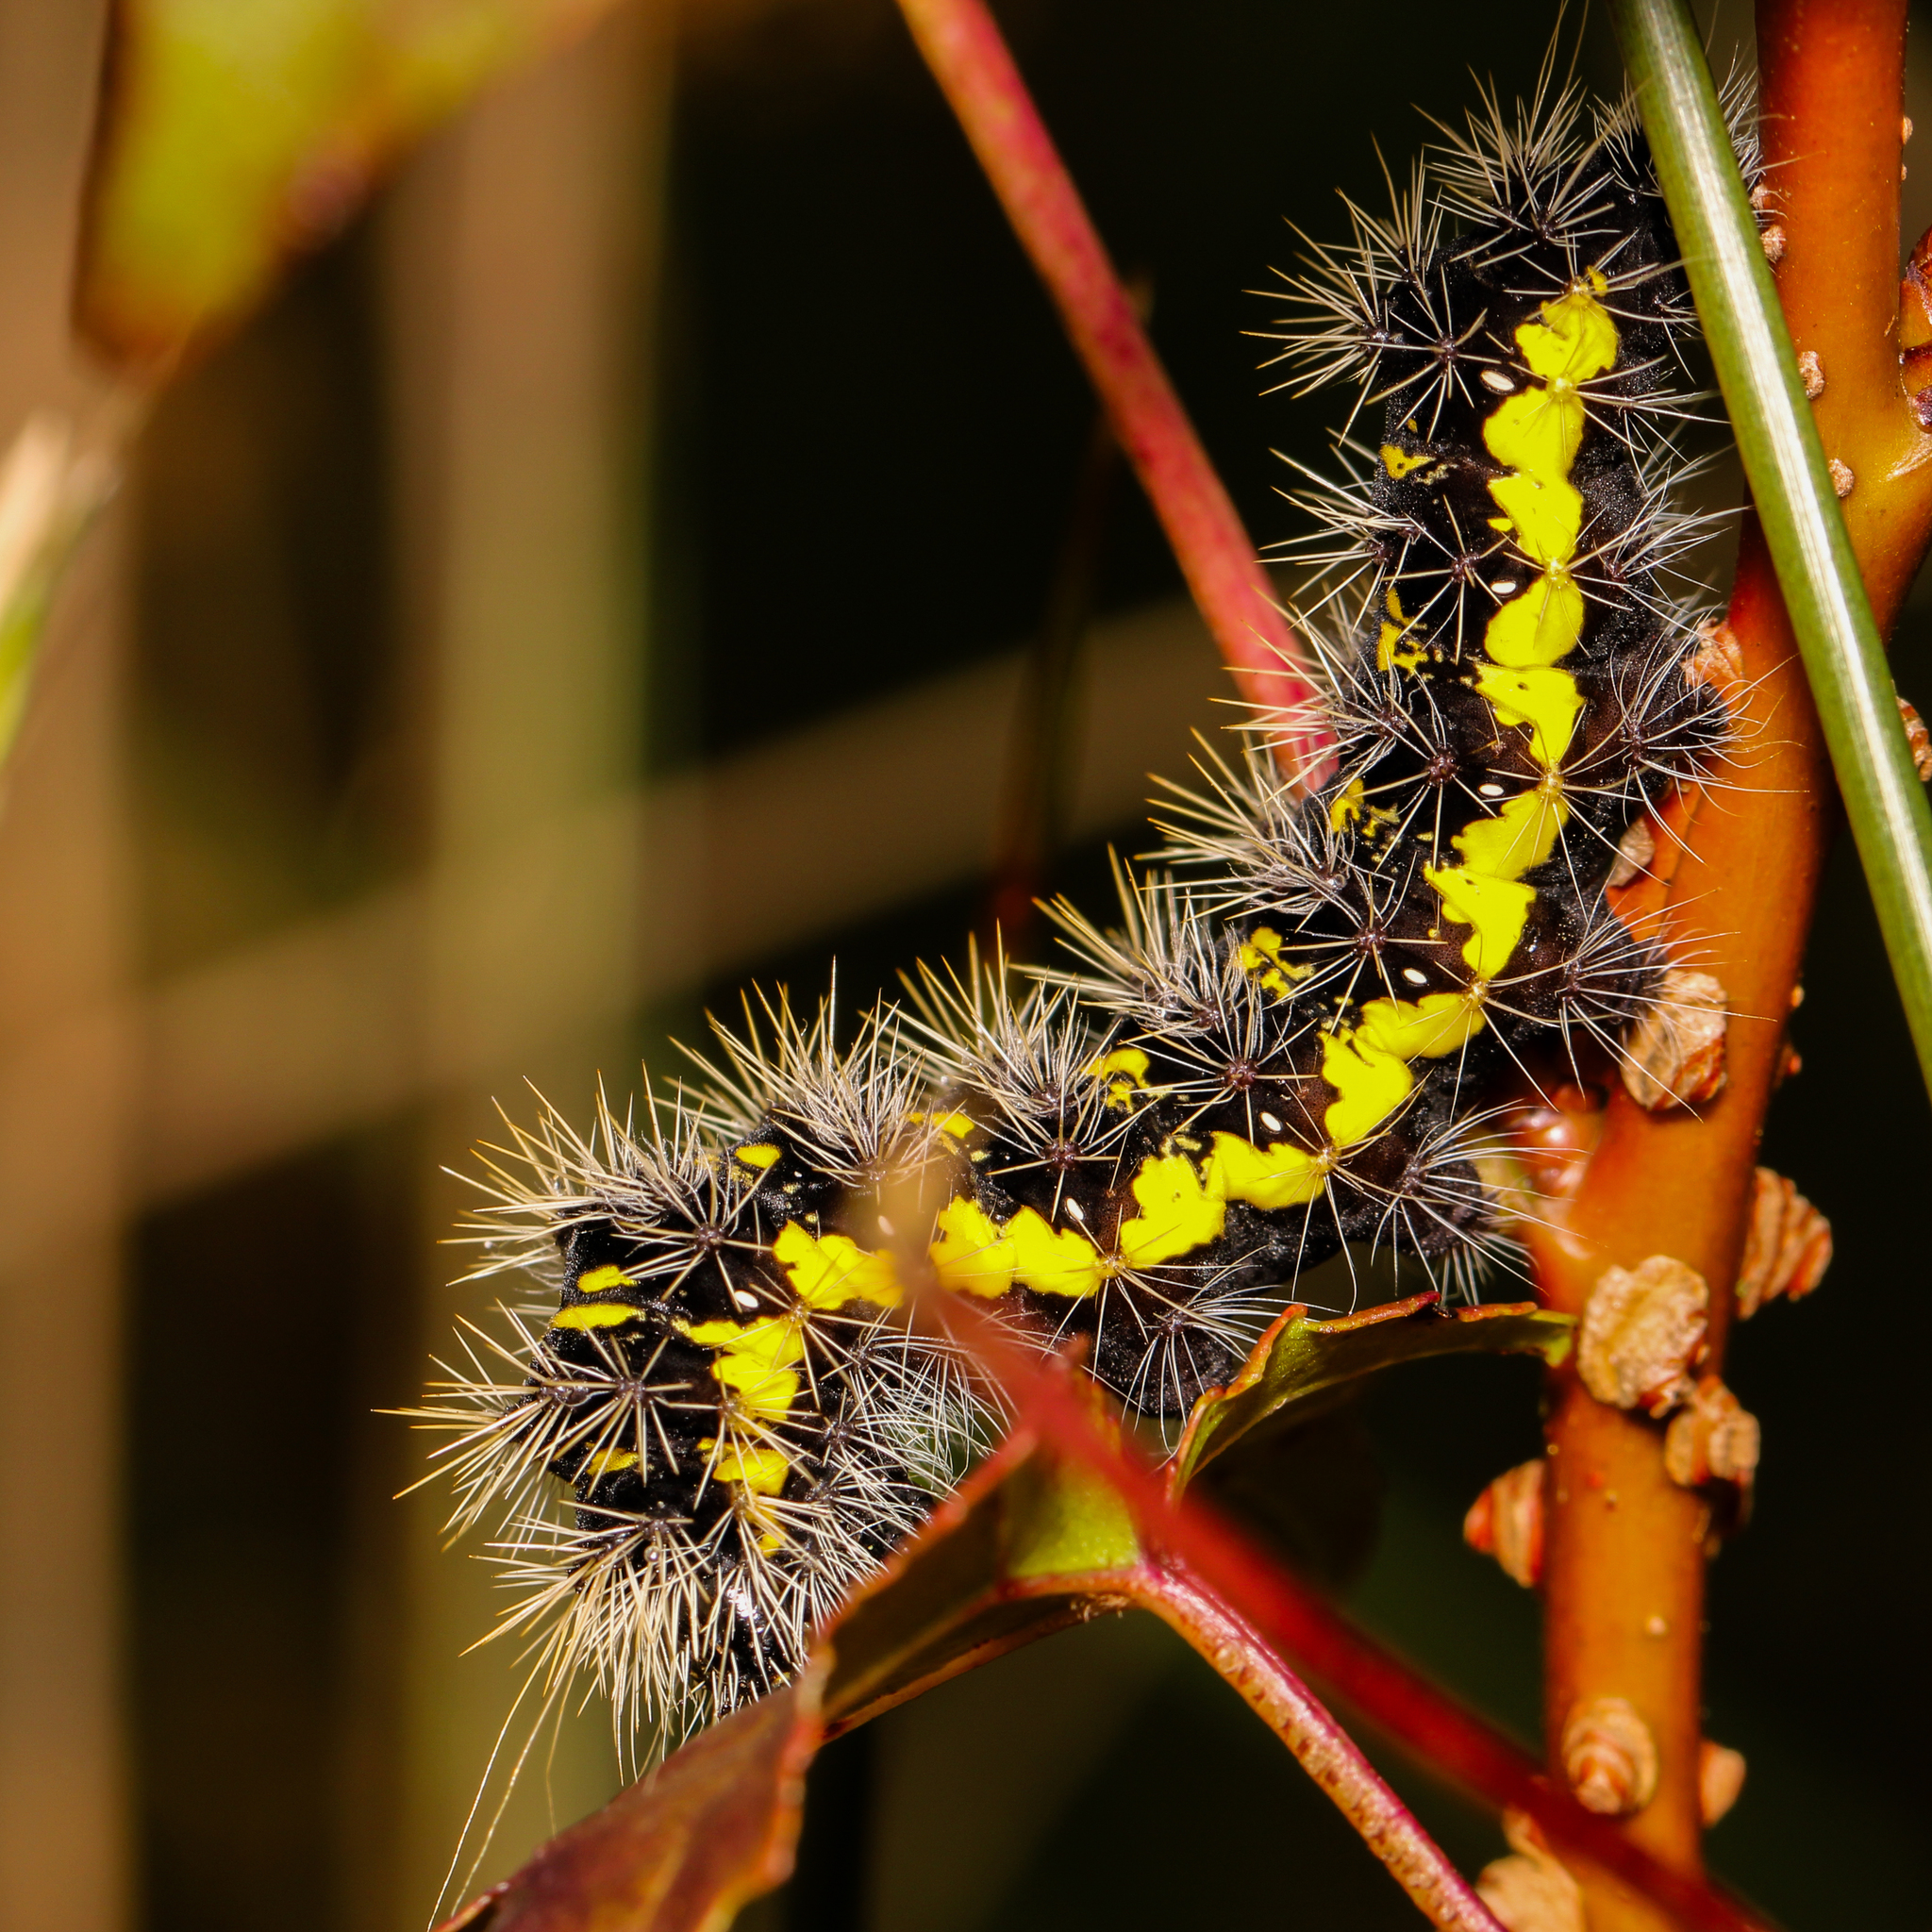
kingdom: Animalia
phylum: Arthropoda
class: Insecta
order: Lepidoptera
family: Noctuidae
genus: Acronicta
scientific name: Acronicta oblinita
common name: Smeared dagger
